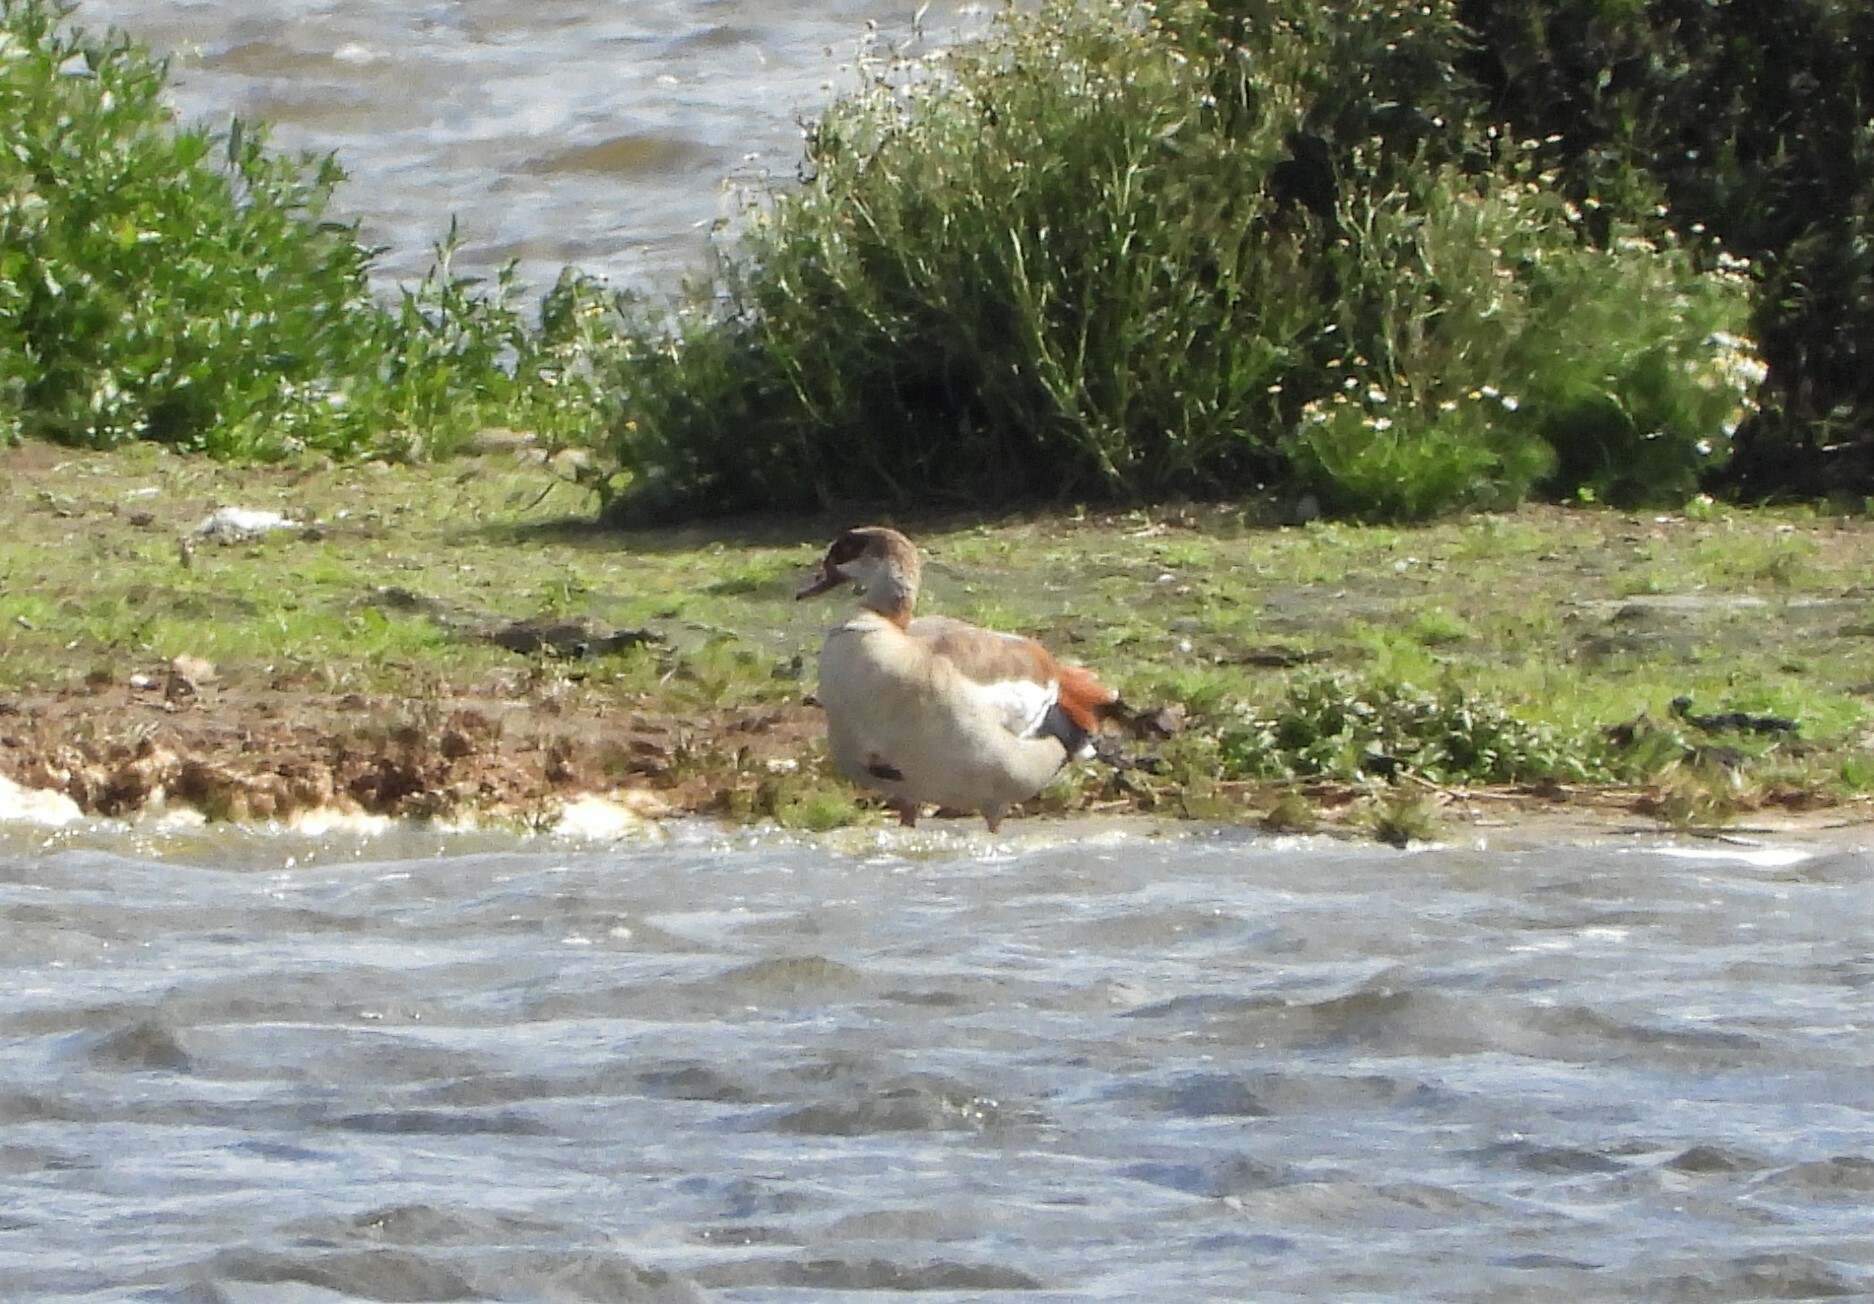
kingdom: Animalia
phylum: Chordata
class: Aves
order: Anseriformes
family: Anatidae
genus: Alopochen
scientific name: Alopochen aegyptiaca
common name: Egyptian goose
